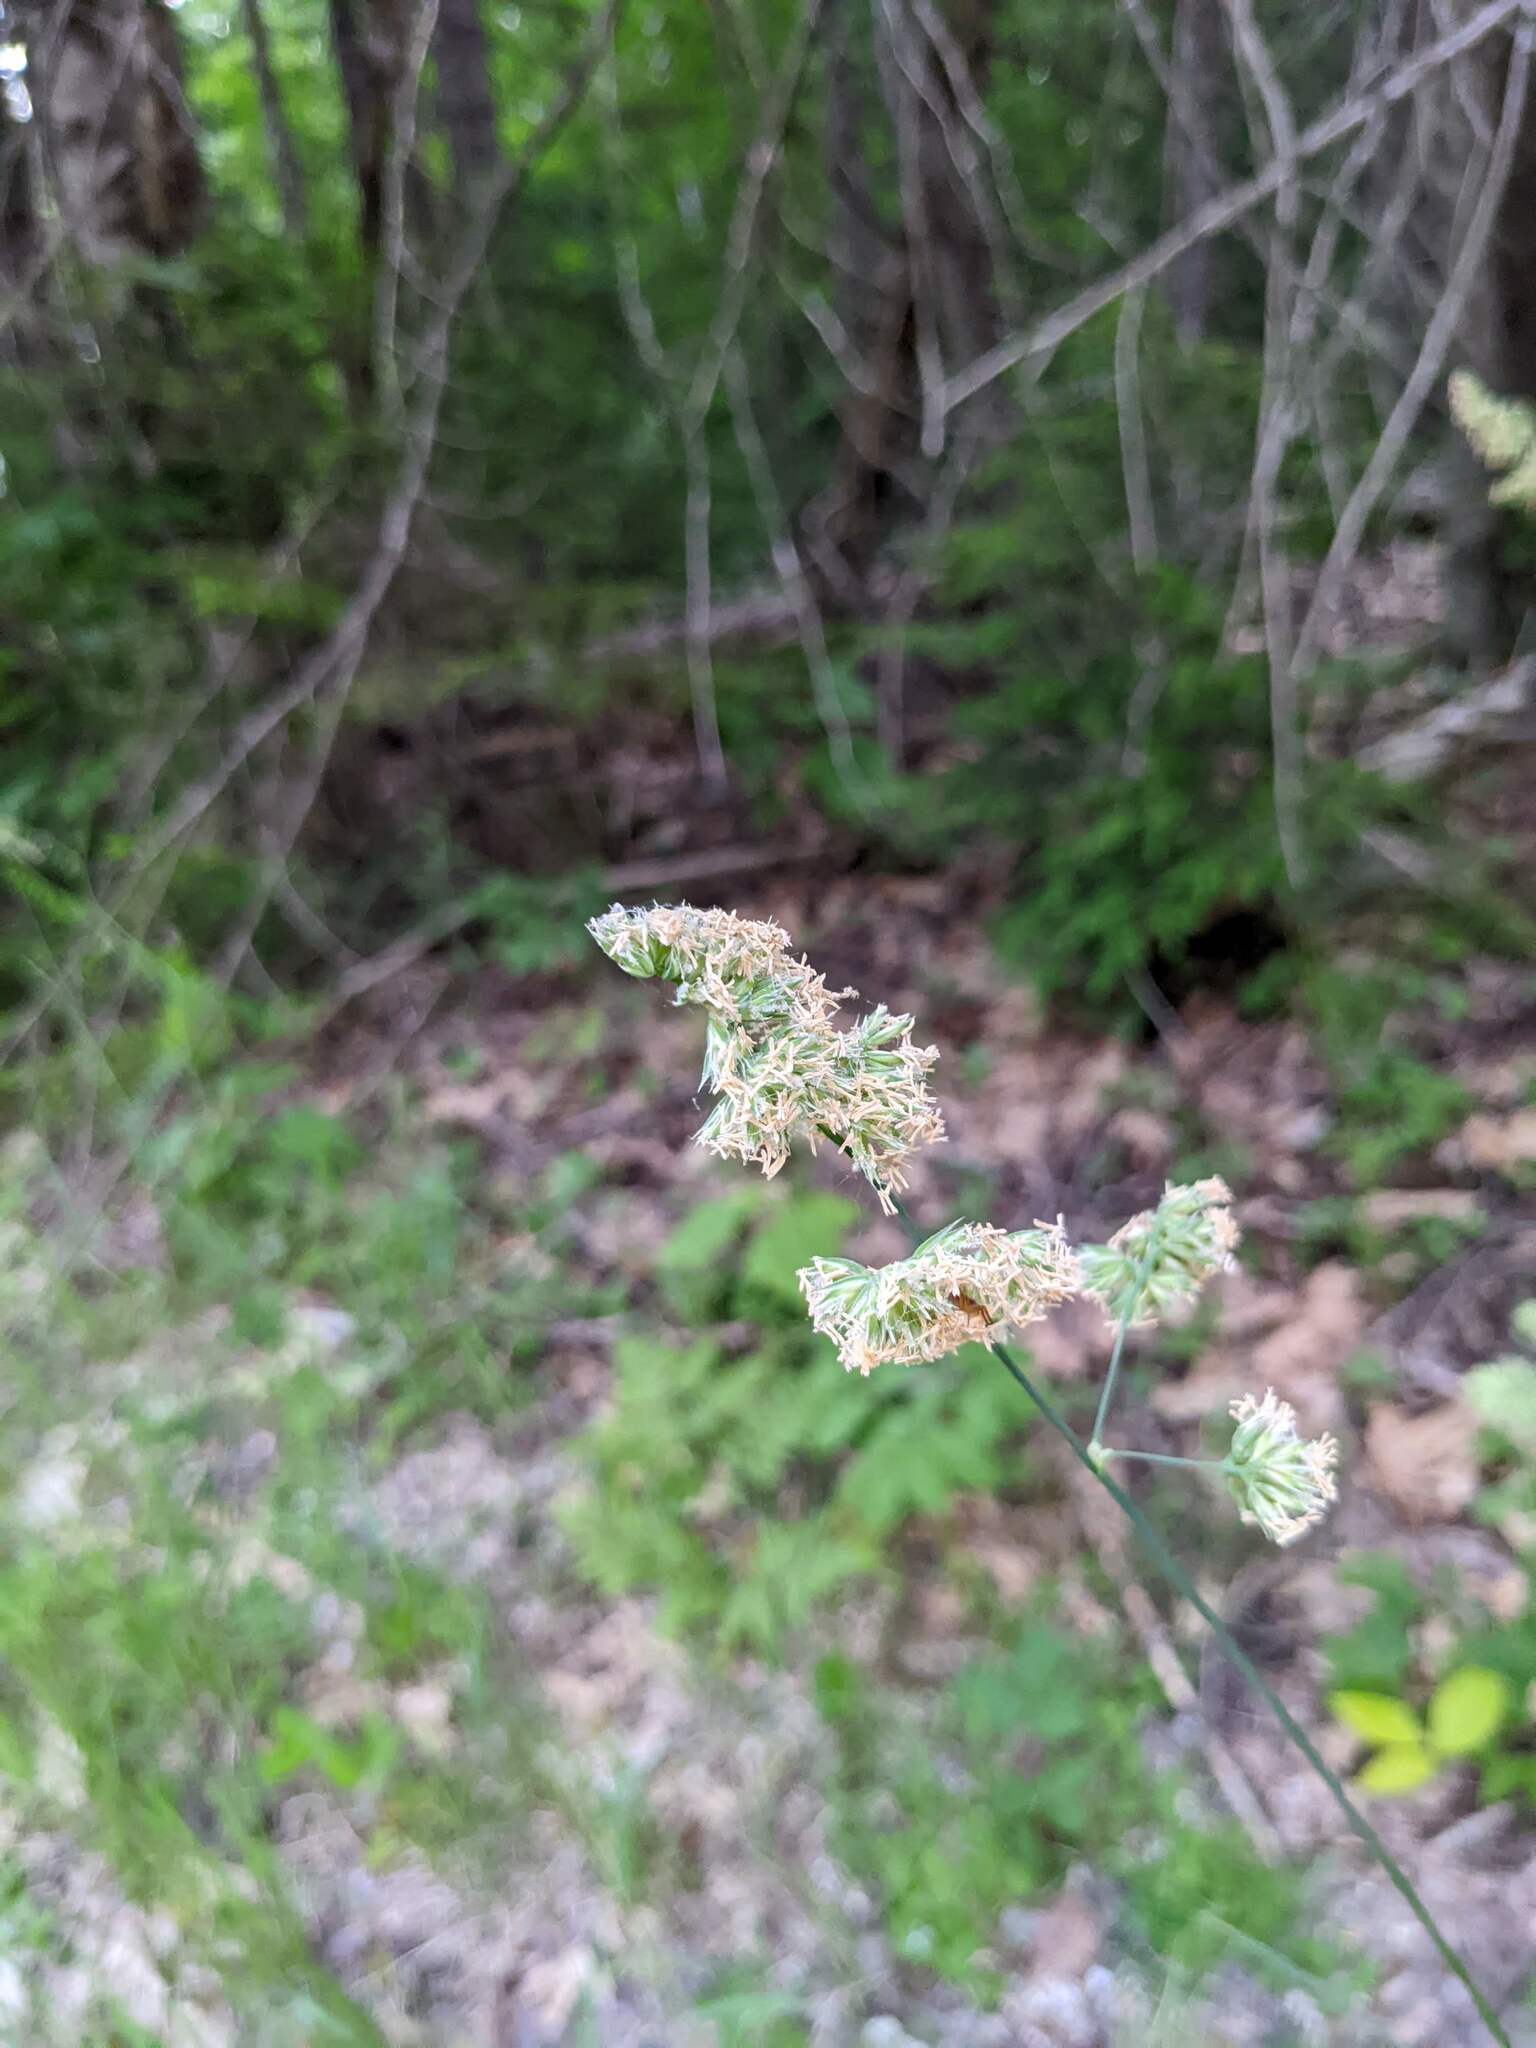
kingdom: Plantae
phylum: Tracheophyta
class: Liliopsida
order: Poales
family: Poaceae
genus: Dactylis
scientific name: Dactylis glomerata
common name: Orchardgrass
